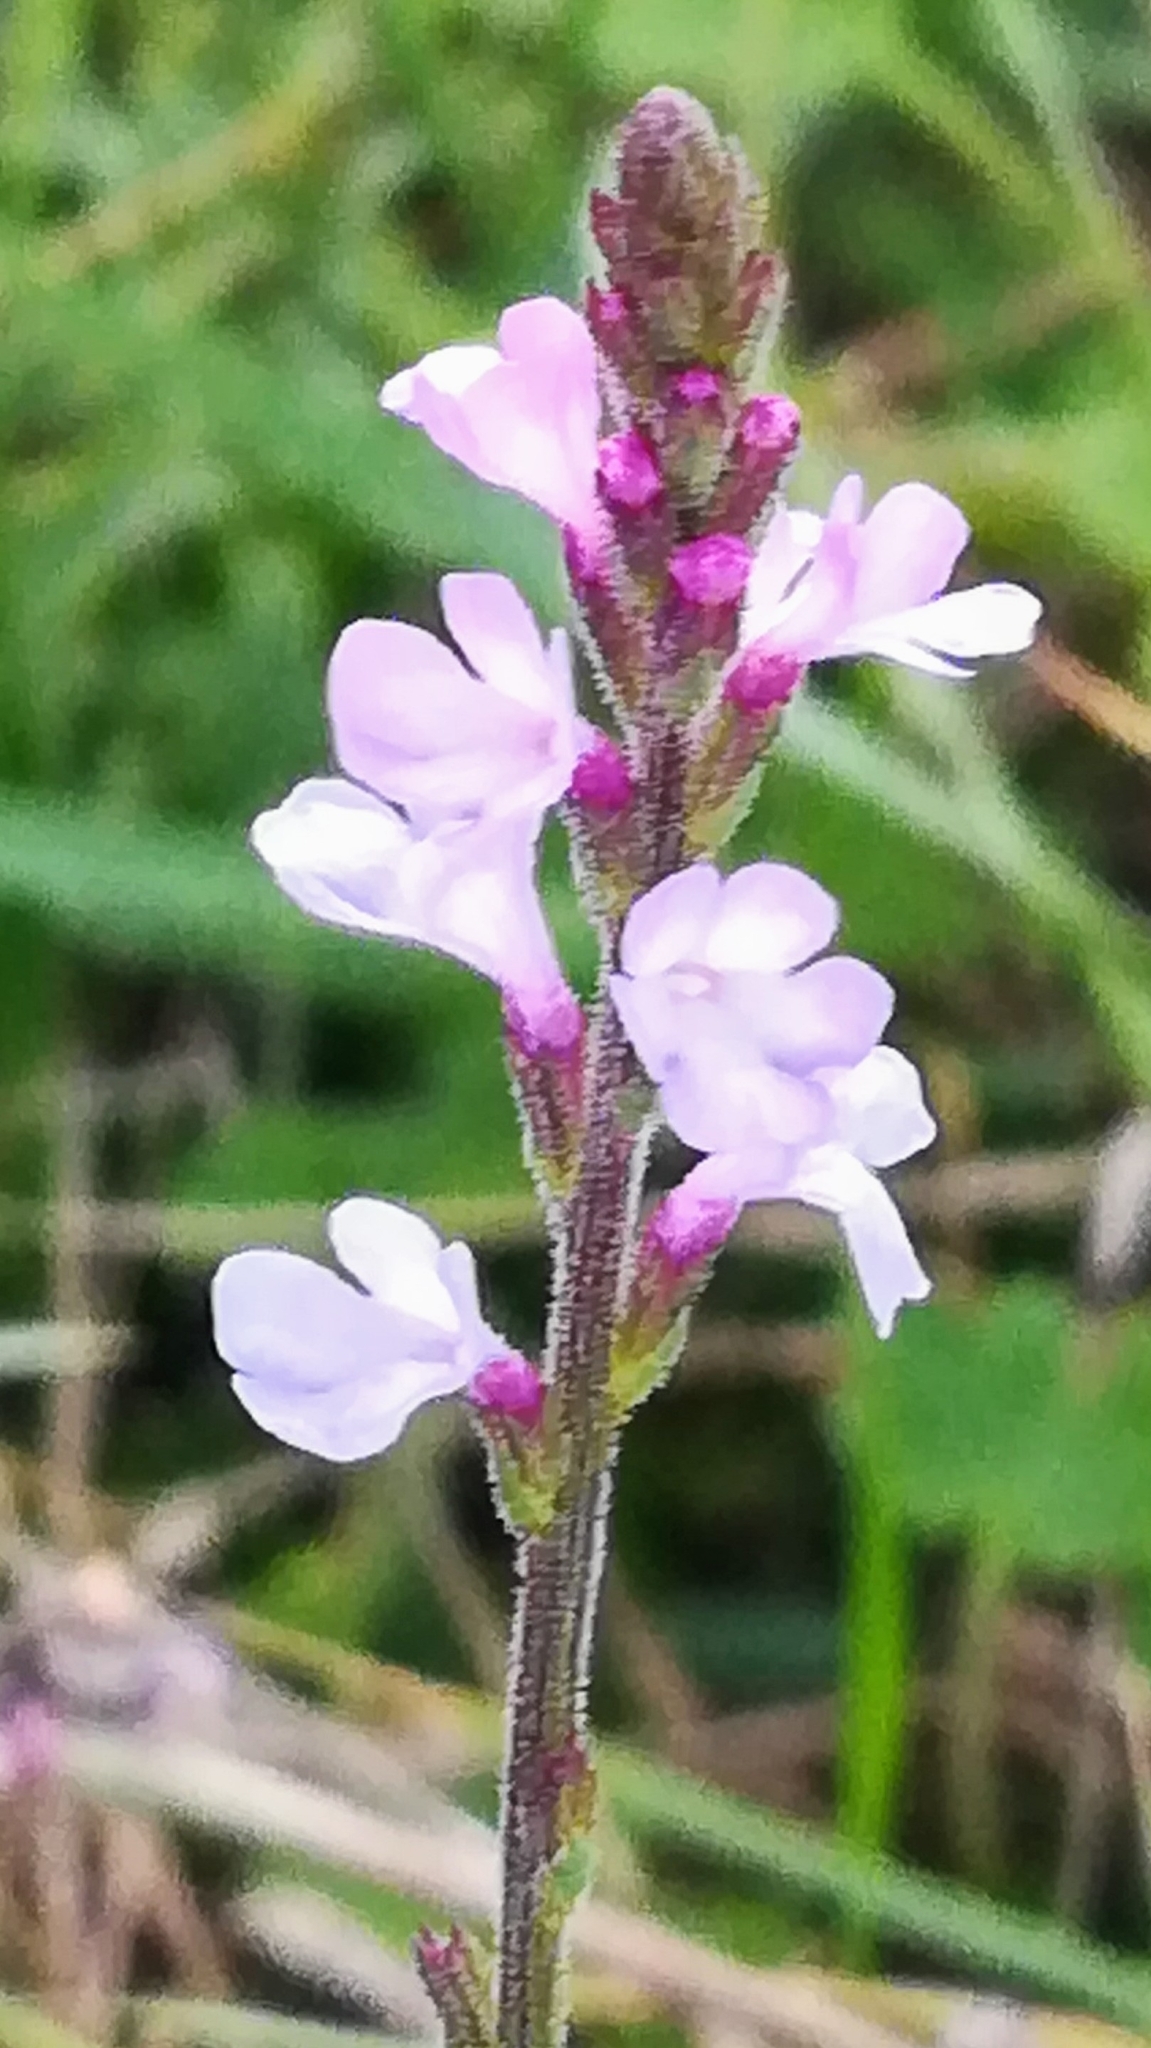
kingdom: Plantae
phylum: Tracheophyta
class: Magnoliopsida
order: Lamiales
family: Verbenaceae
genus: Verbena
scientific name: Verbena officinalis
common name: Vervain
